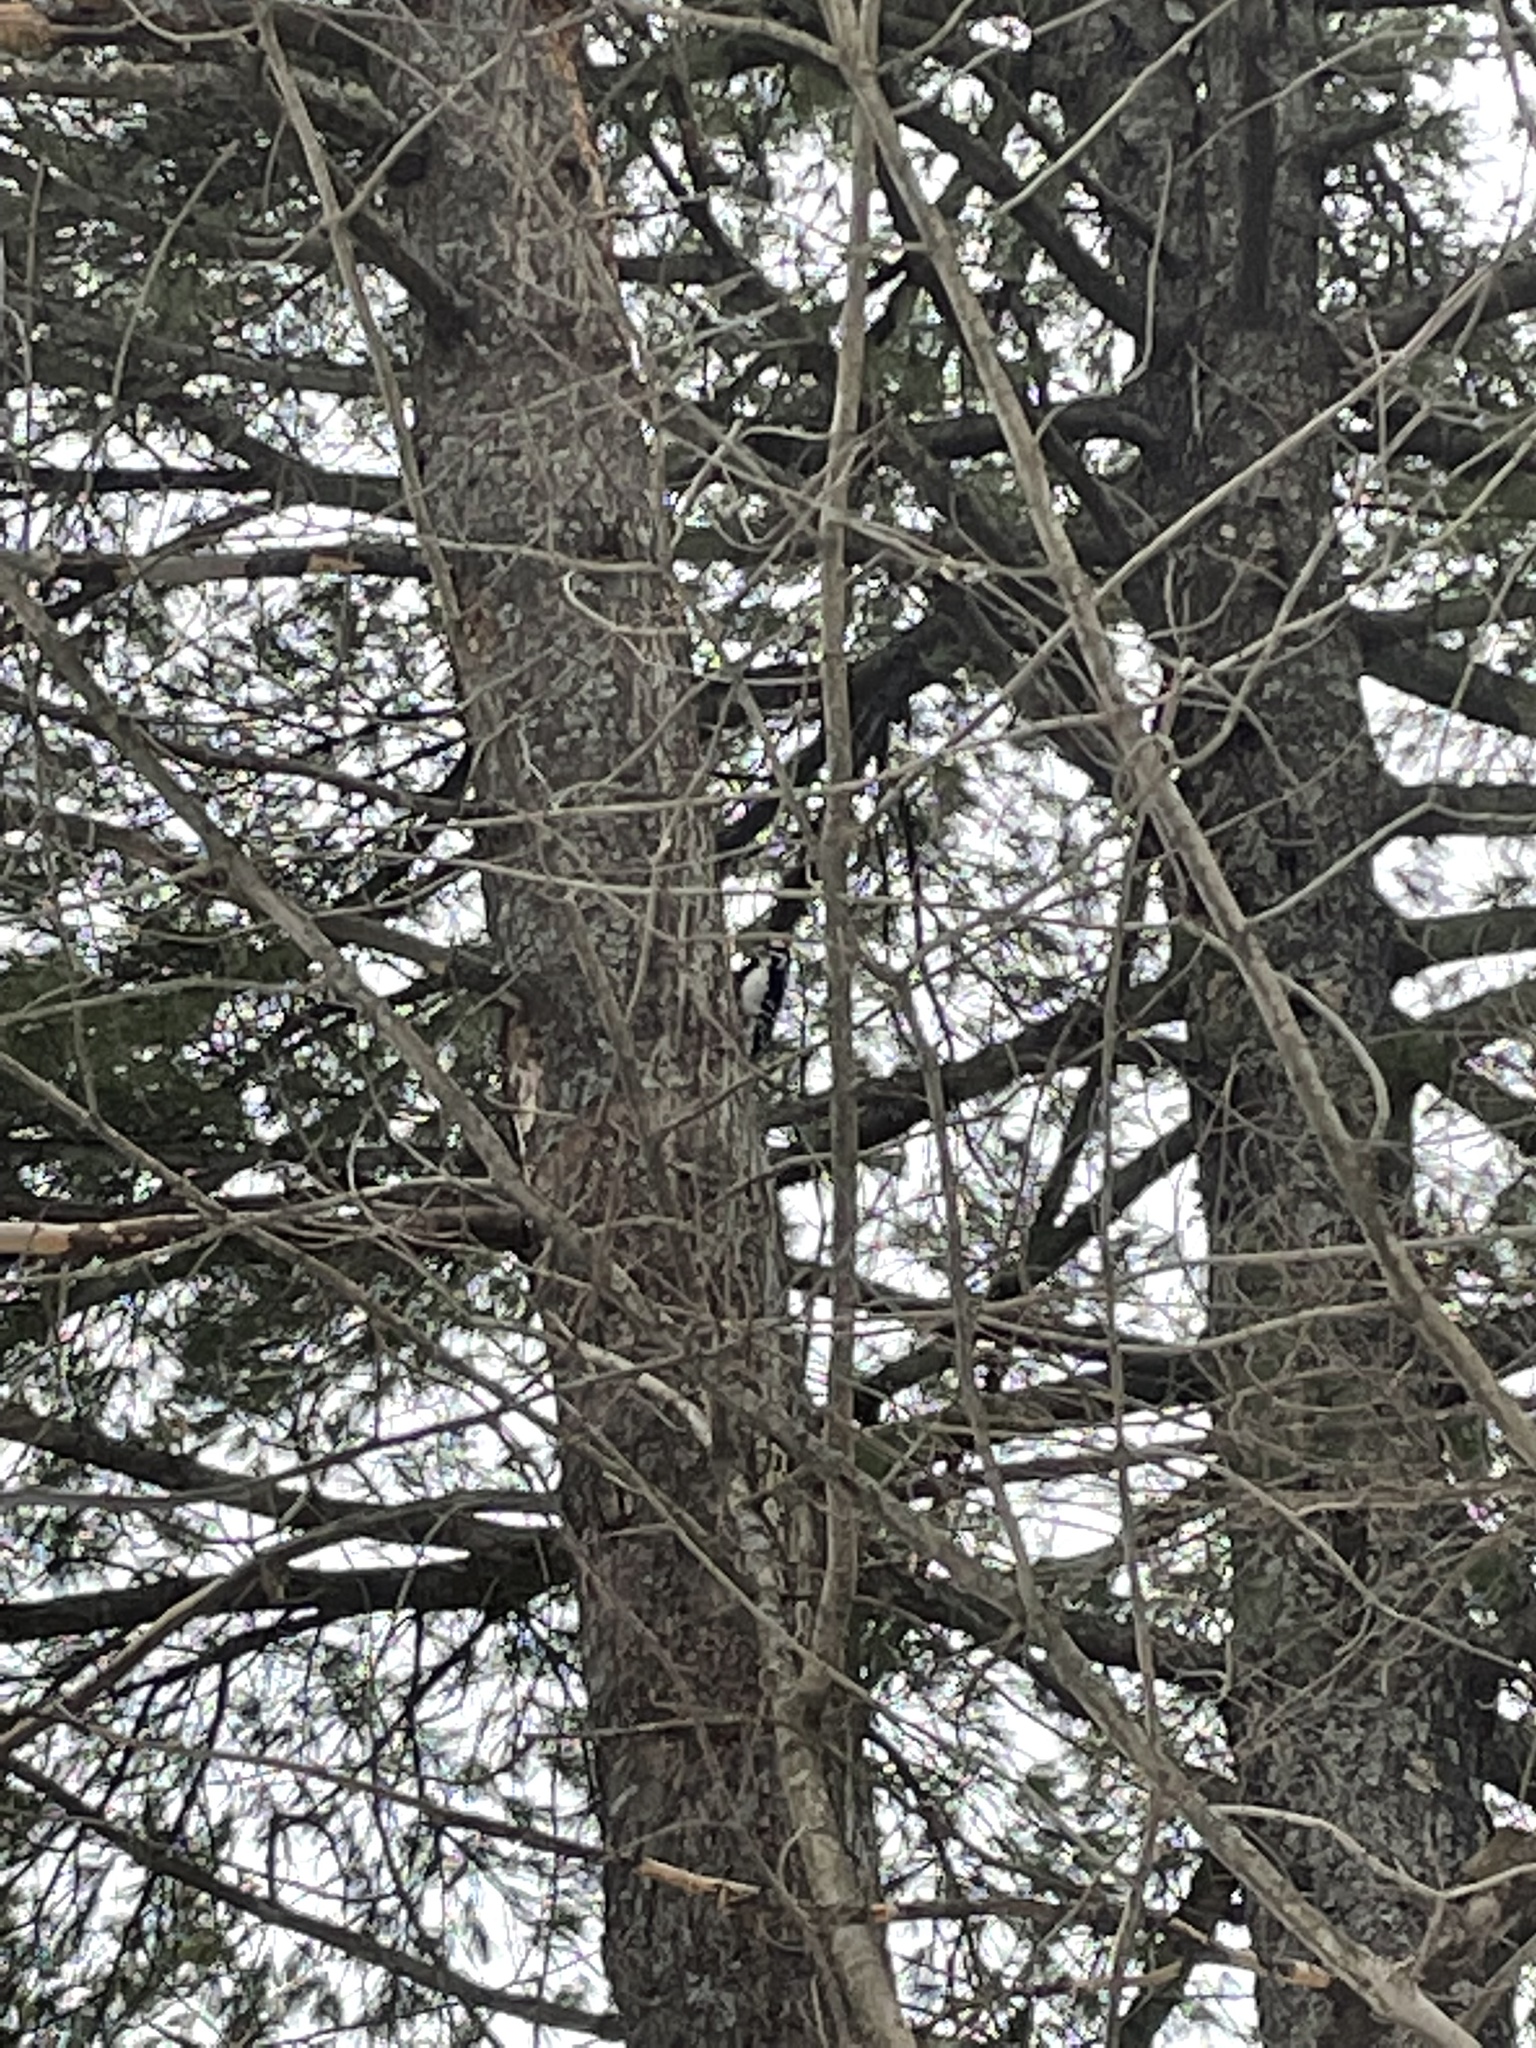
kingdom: Animalia
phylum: Chordata
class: Aves
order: Piciformes
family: Picidae
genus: Leuconotopicus
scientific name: Leuconotopicus villosus
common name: Hairy woodpecker
